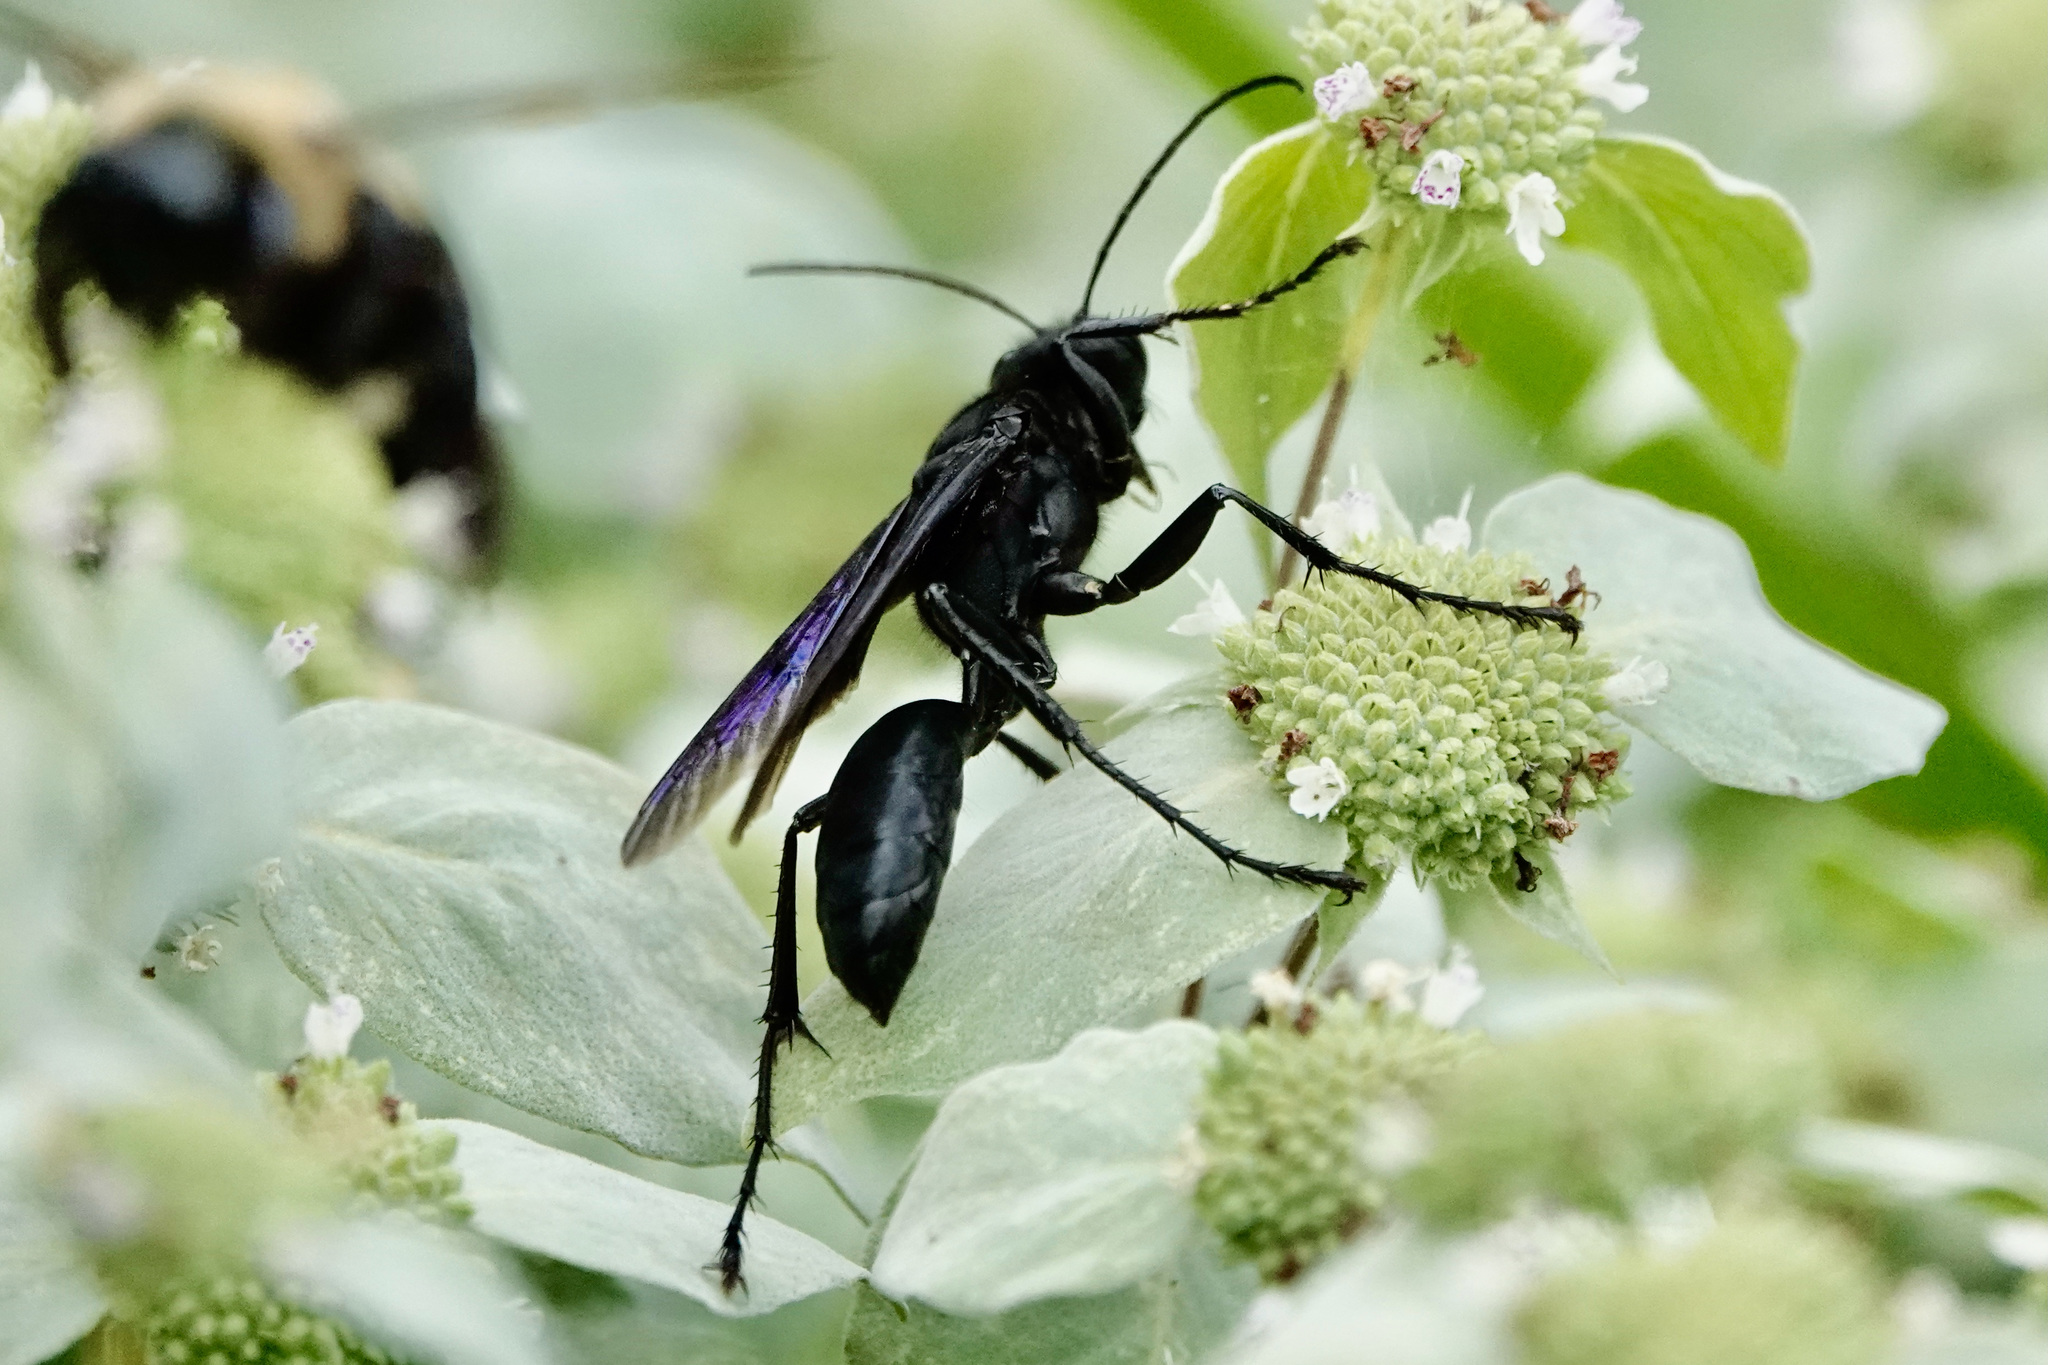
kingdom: Animalia
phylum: Arthropoda
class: Insecta
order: Hymenoptera
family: Sphecidae
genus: Sphex
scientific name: Sphex pensylvanicus
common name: Great black digger wasp
